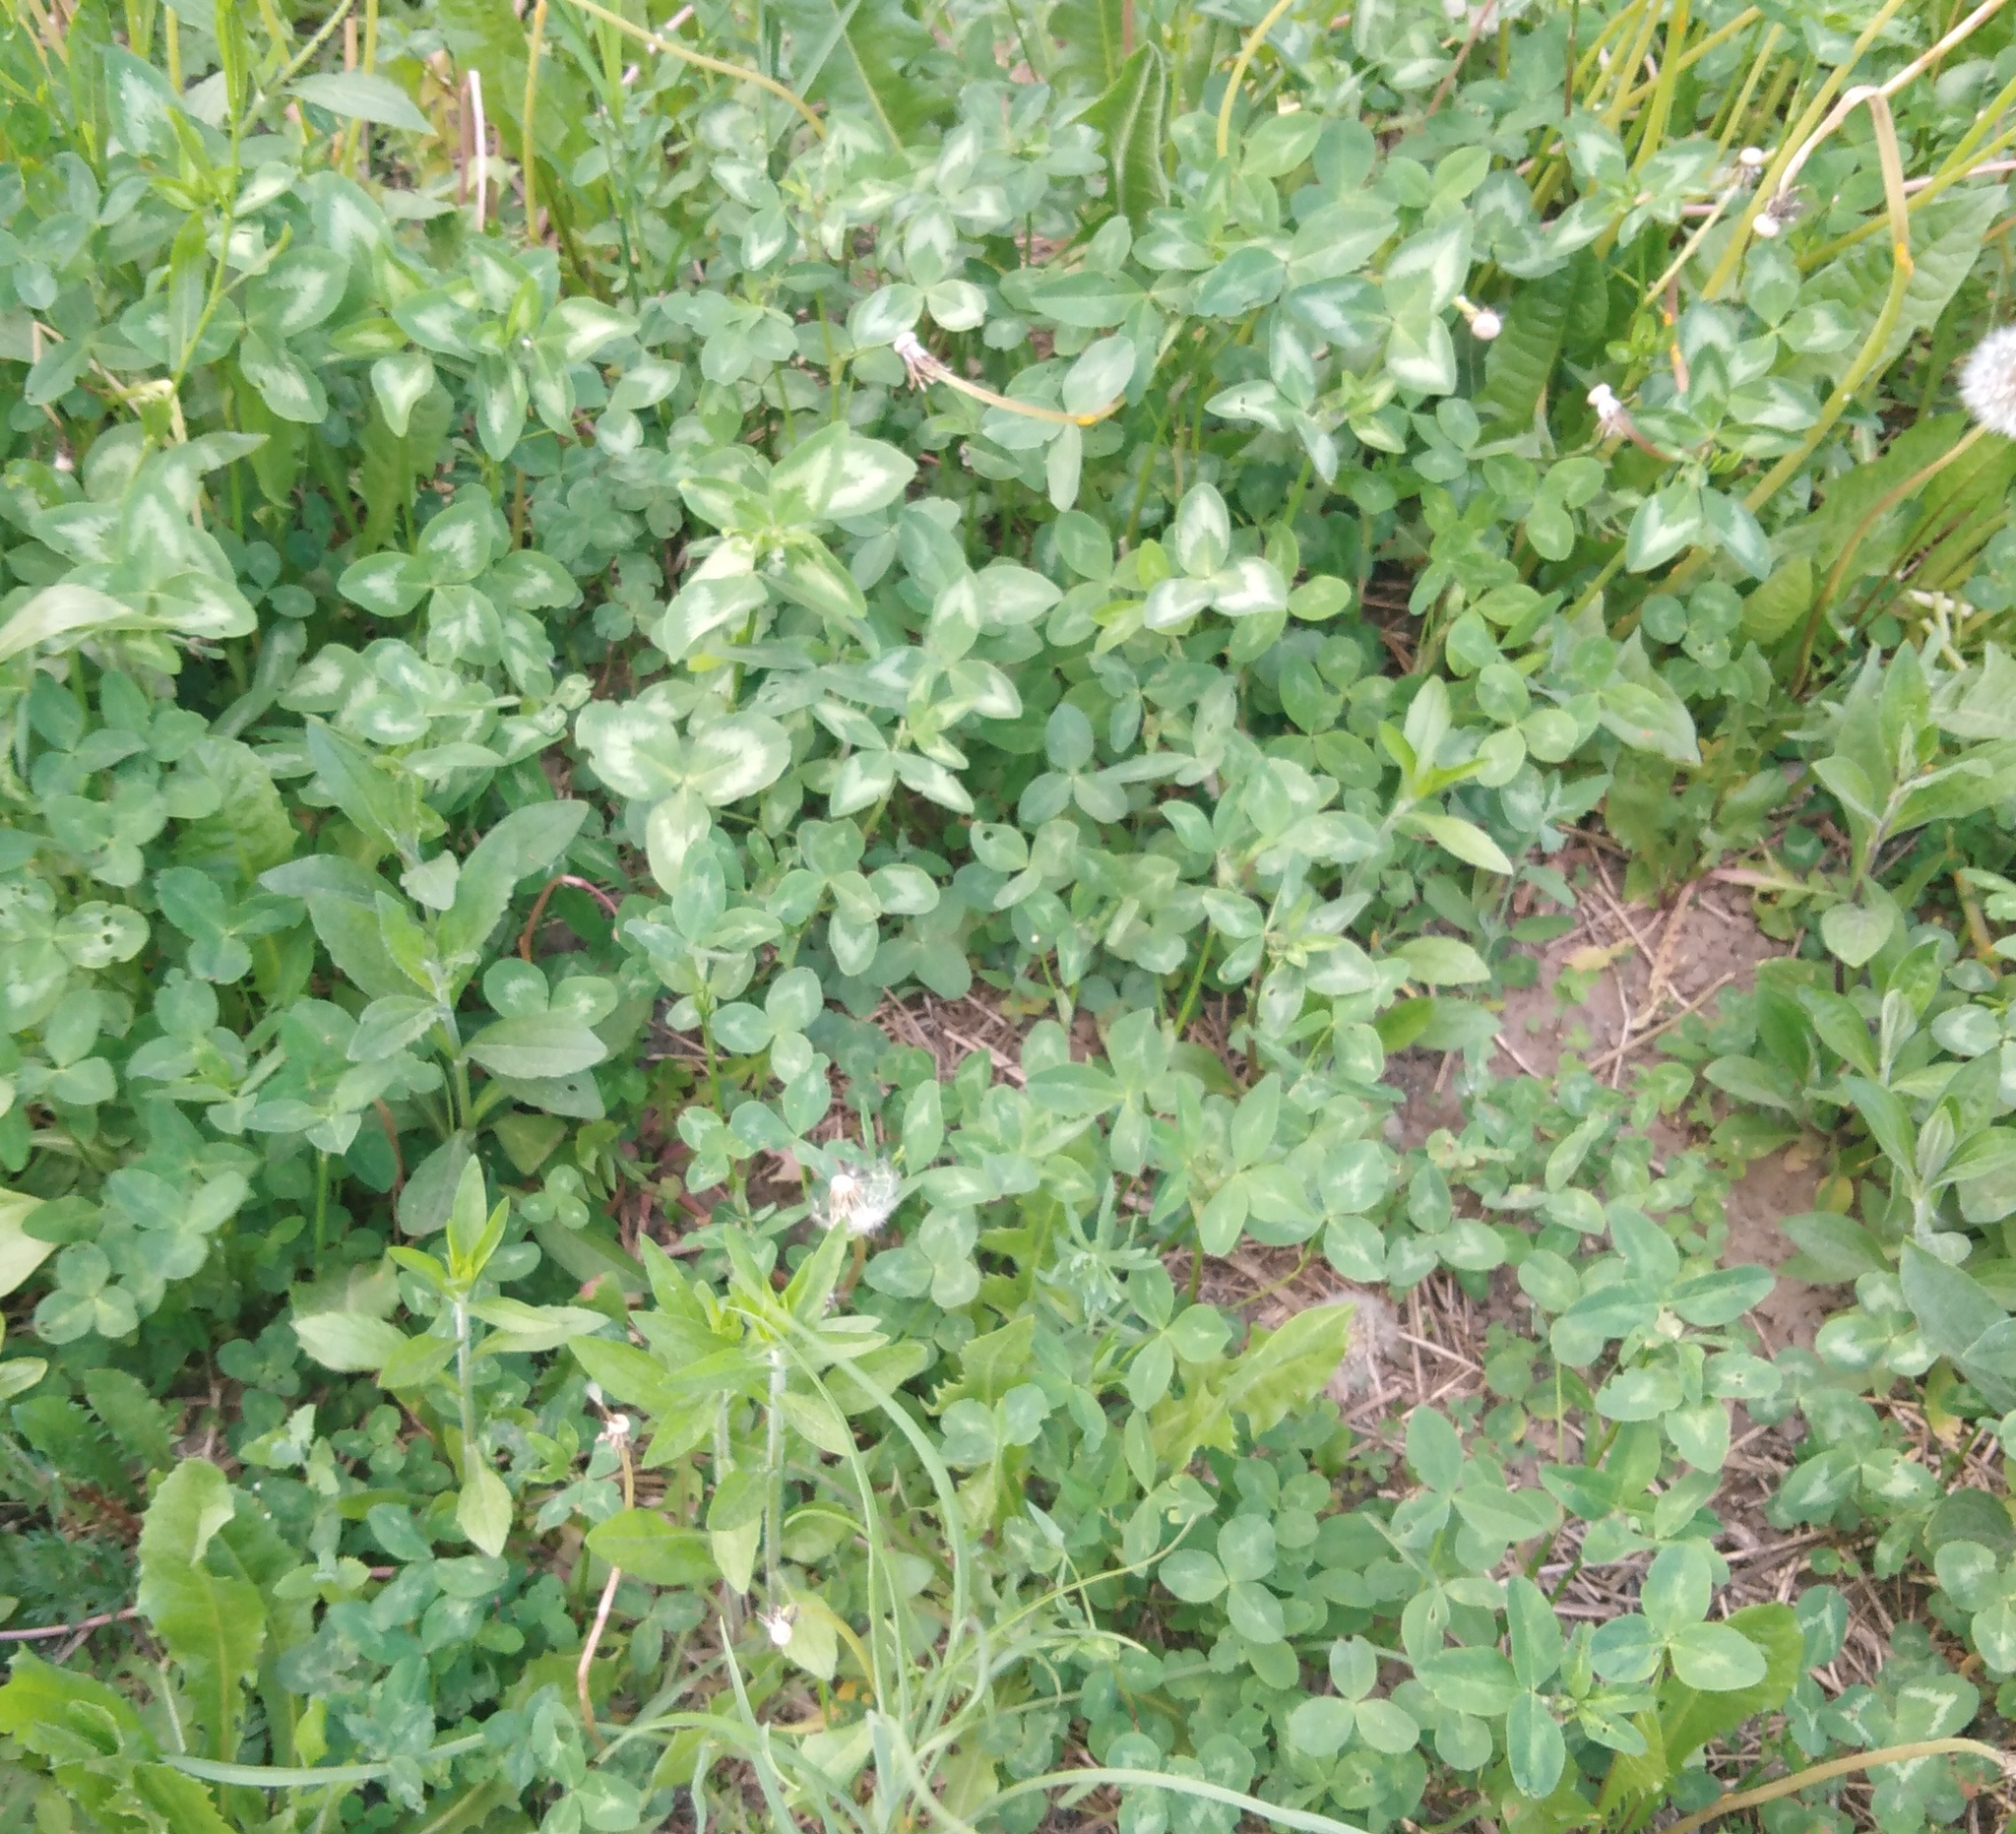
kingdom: Plantae
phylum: Tracheophyta
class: Magnoliopsida
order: Fabales
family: Fabaceae
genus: Trifolium
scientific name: Trifolium pratense
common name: Red clover
